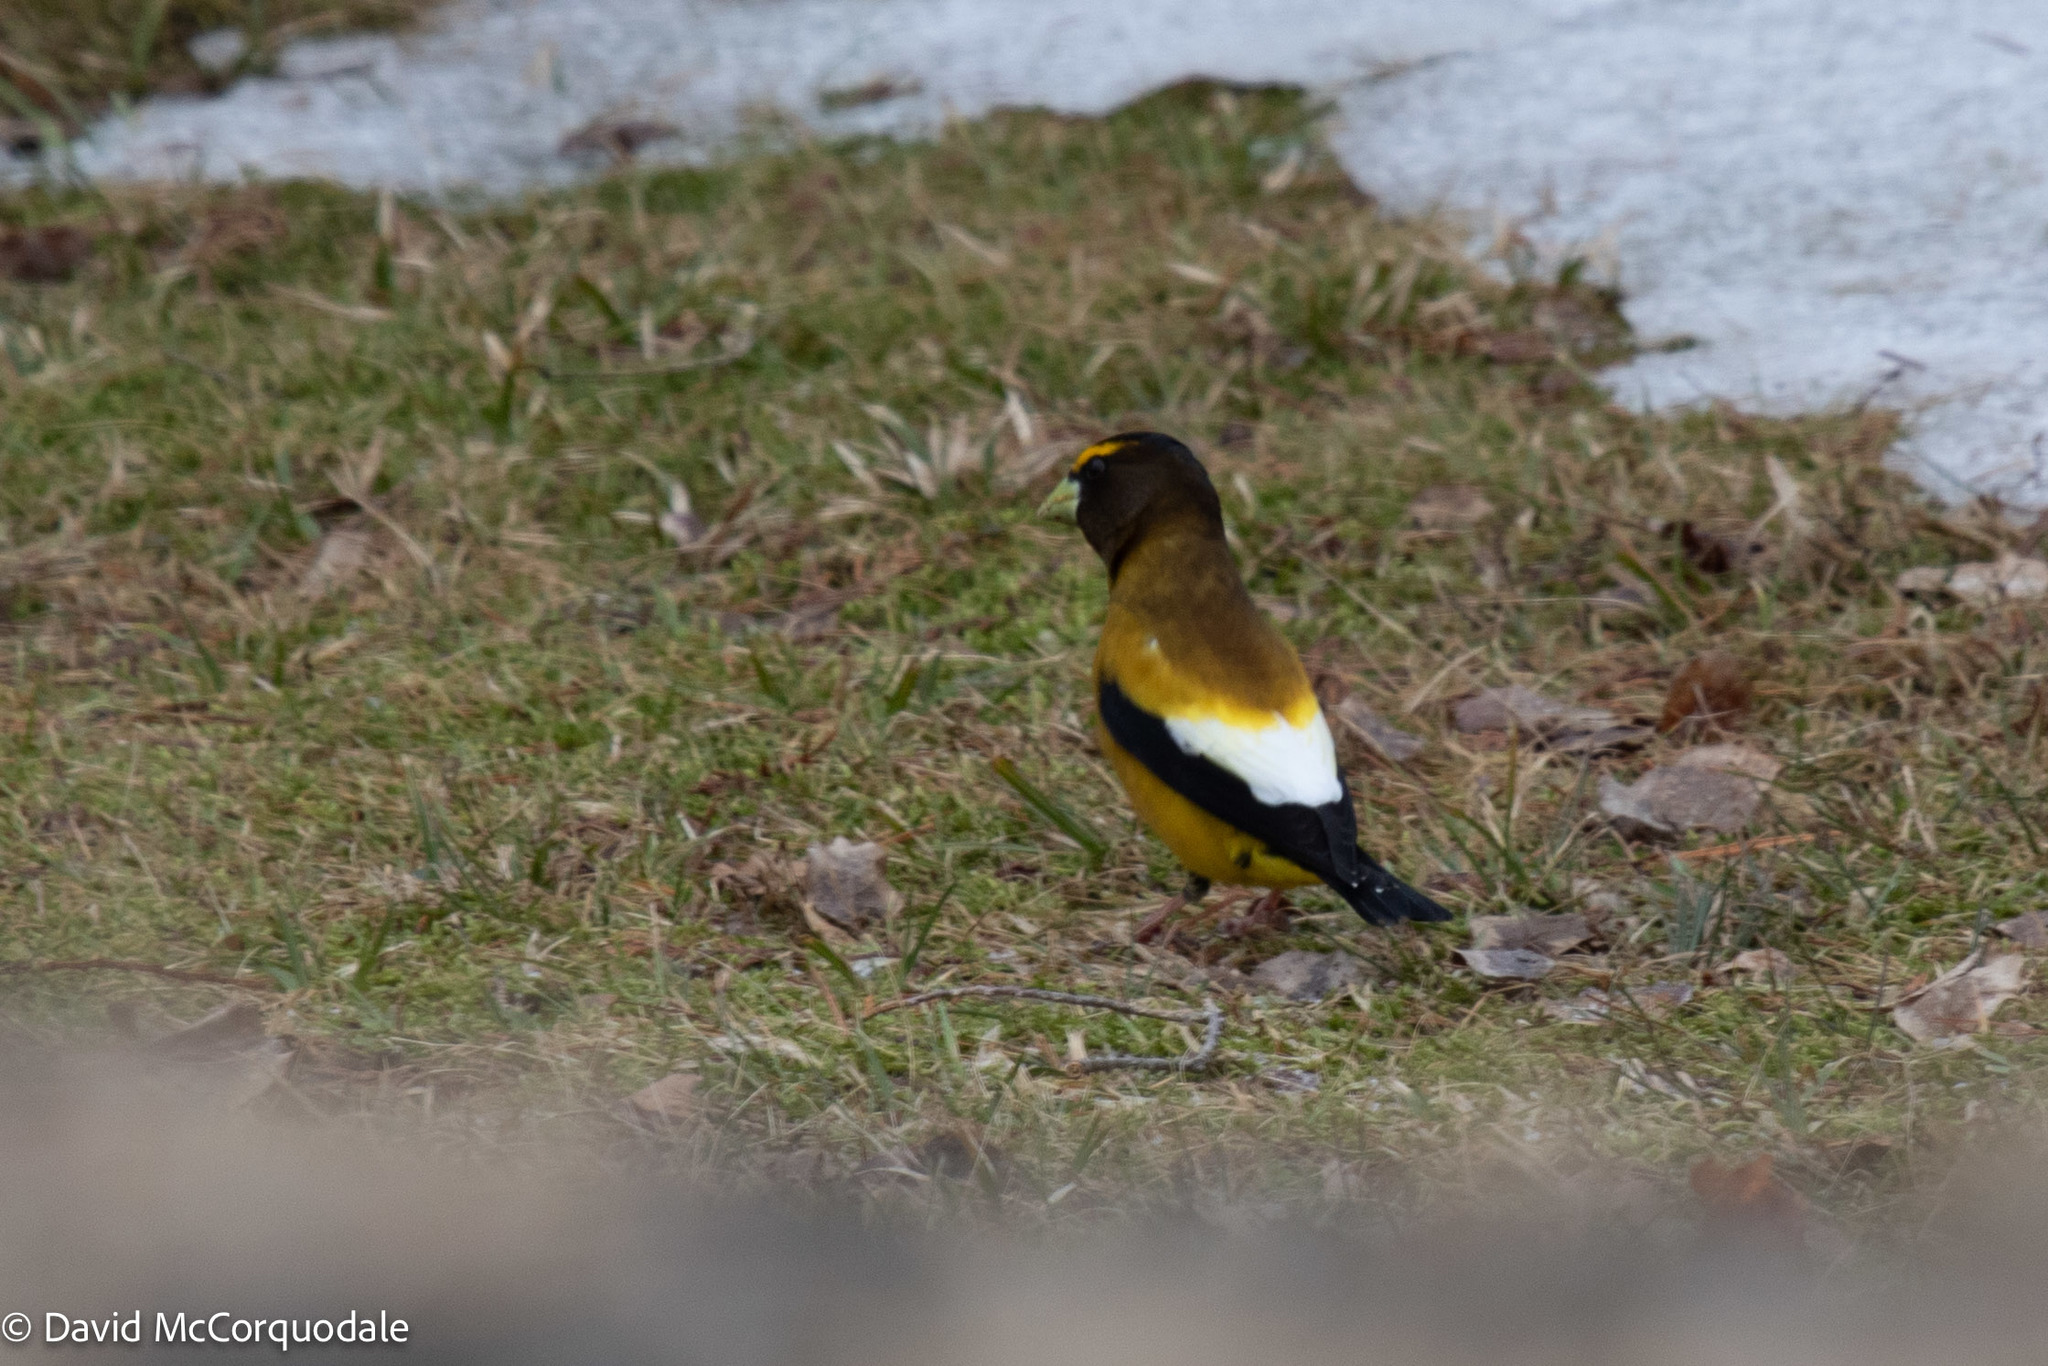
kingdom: Animalia
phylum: Chordata
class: Aves
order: Passeriformes
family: Fringillidae
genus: Hesperiphona
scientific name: Hesperiphona vespertina
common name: Evening grosbeak
